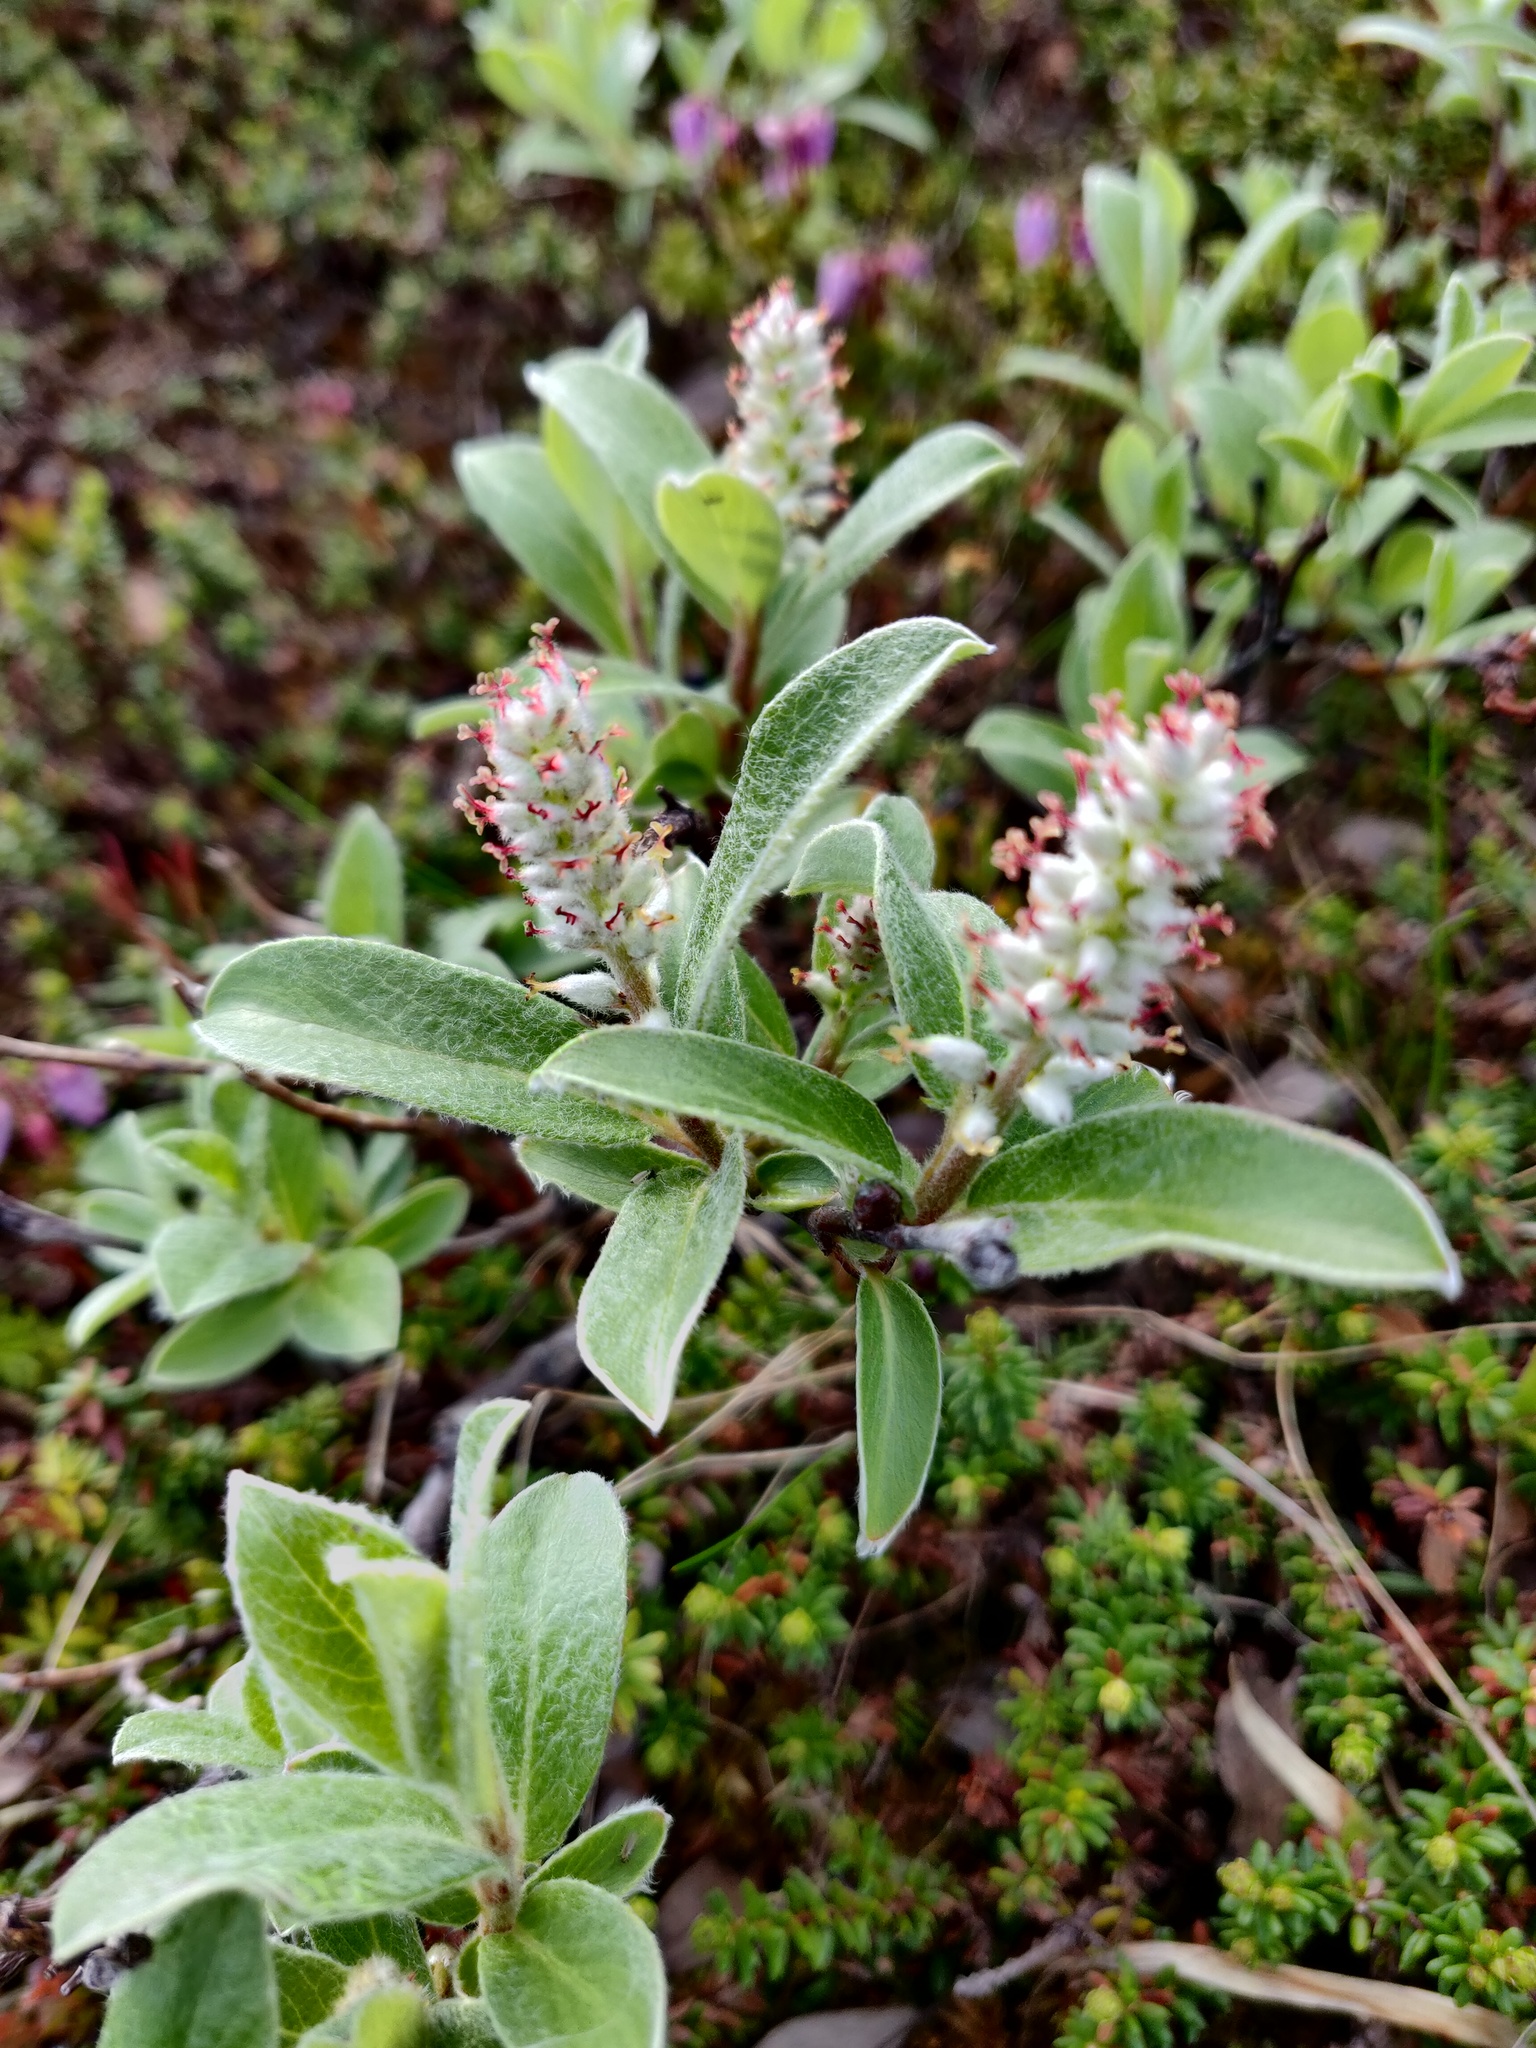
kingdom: Plantae
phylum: Tracheophyta
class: Magnoliopsida
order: Malpighiales
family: Salicaceae
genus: Salix
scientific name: Salix glauca
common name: Glaucous willow
